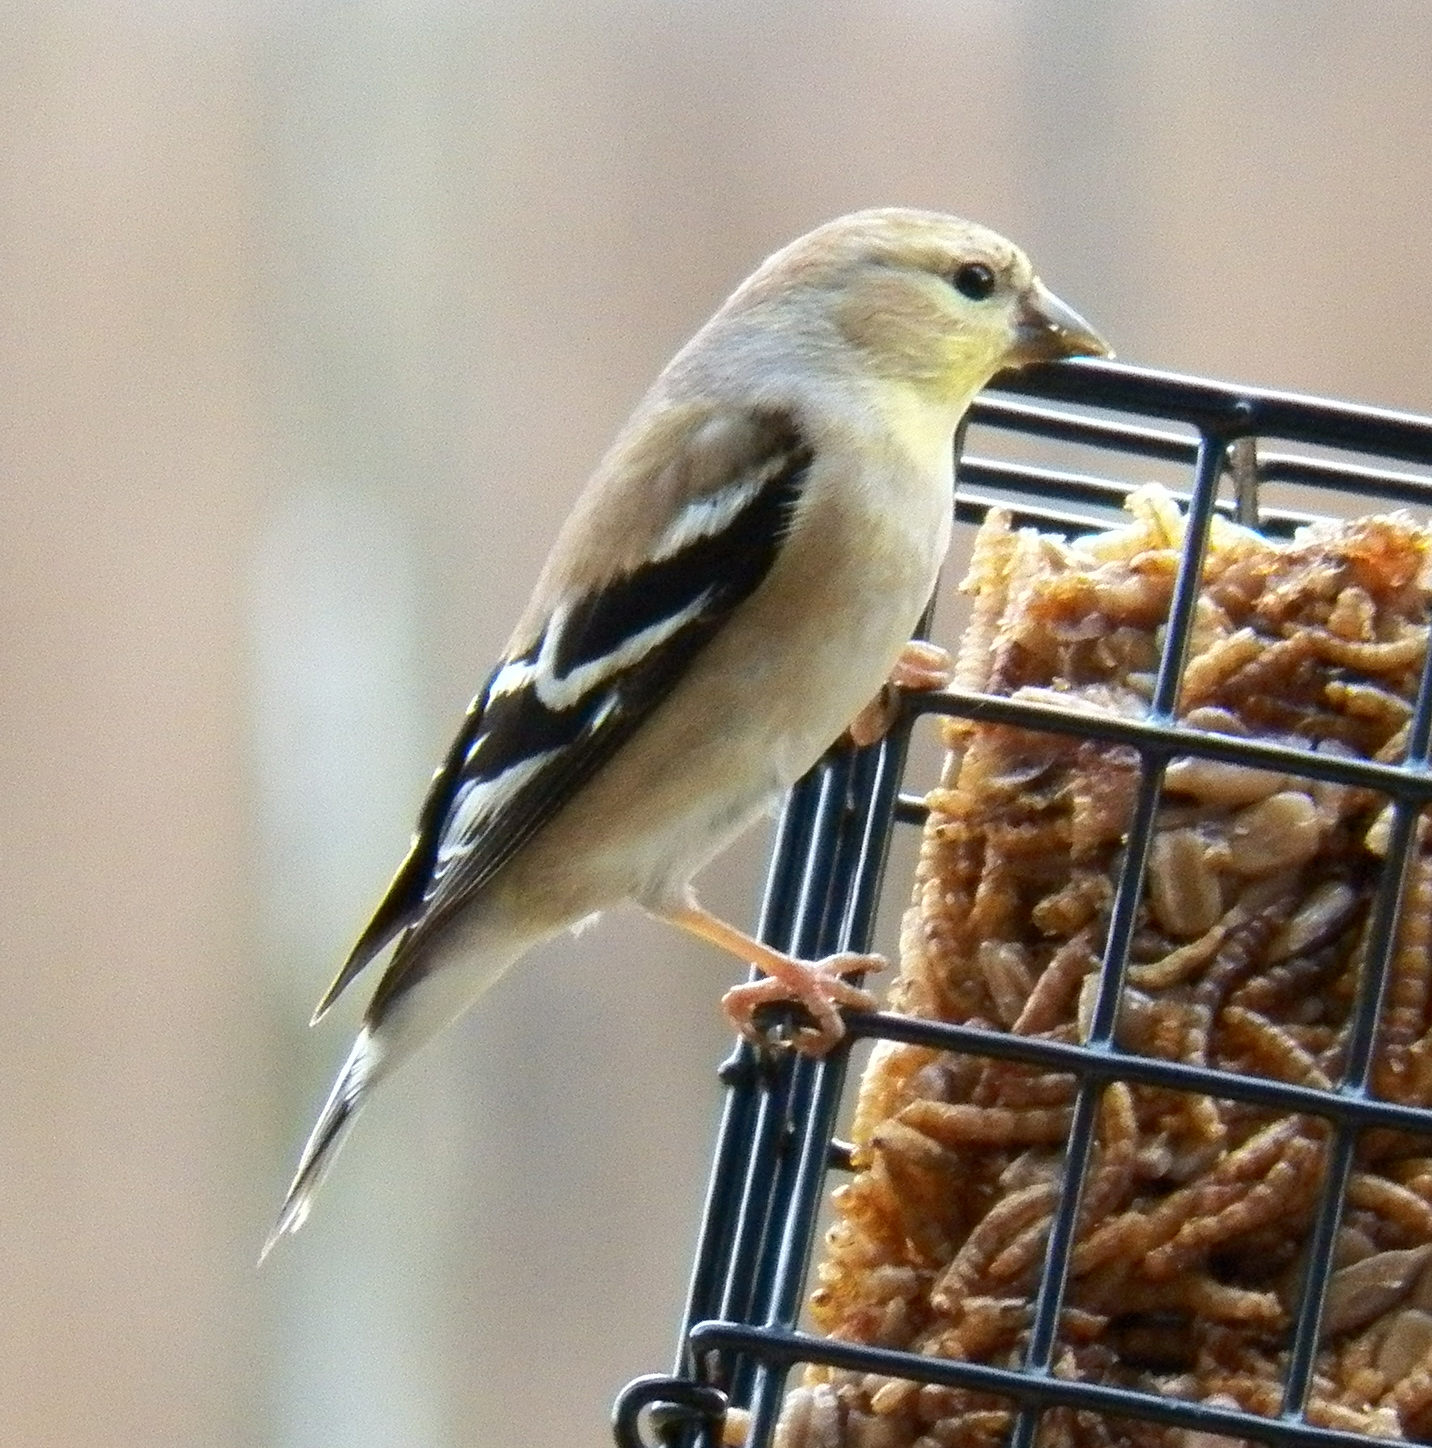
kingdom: Animalia
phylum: Chordata
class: Aves
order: Passeriformes
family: Fringillidae
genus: Spinus
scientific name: Spinus tristis
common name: American goldfinch
